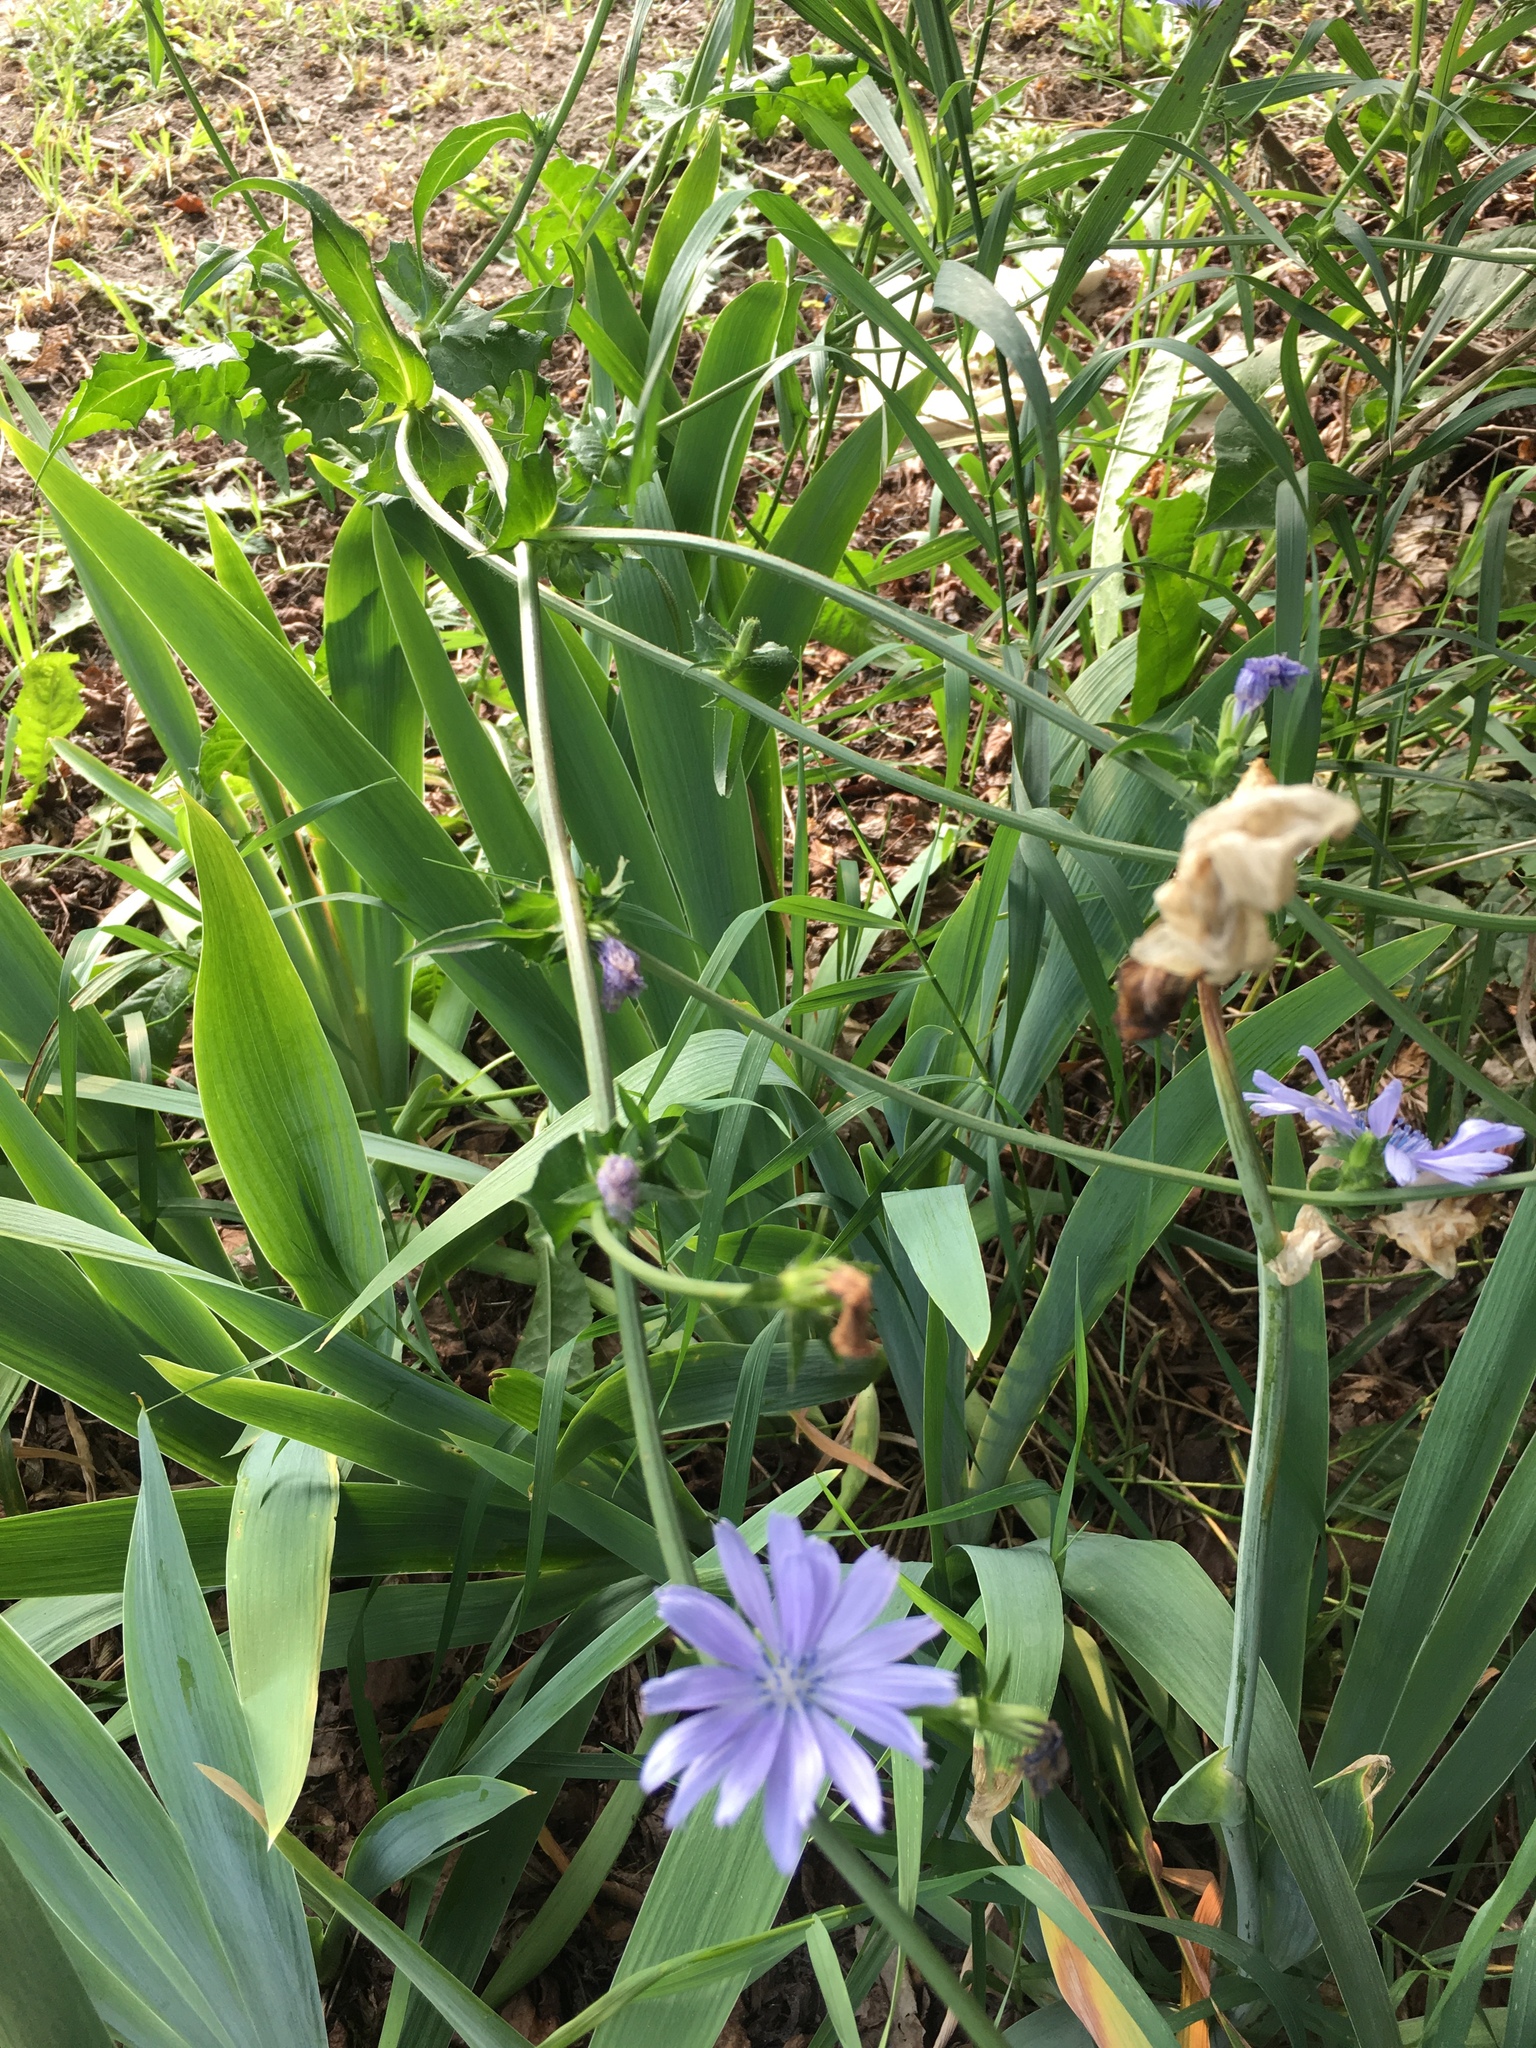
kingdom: Plantae
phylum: Tracheophyta
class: Magnoliopsida
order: Asterales
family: Asteraceae
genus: Cichorium
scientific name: Cichorium intybus
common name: Chicory
